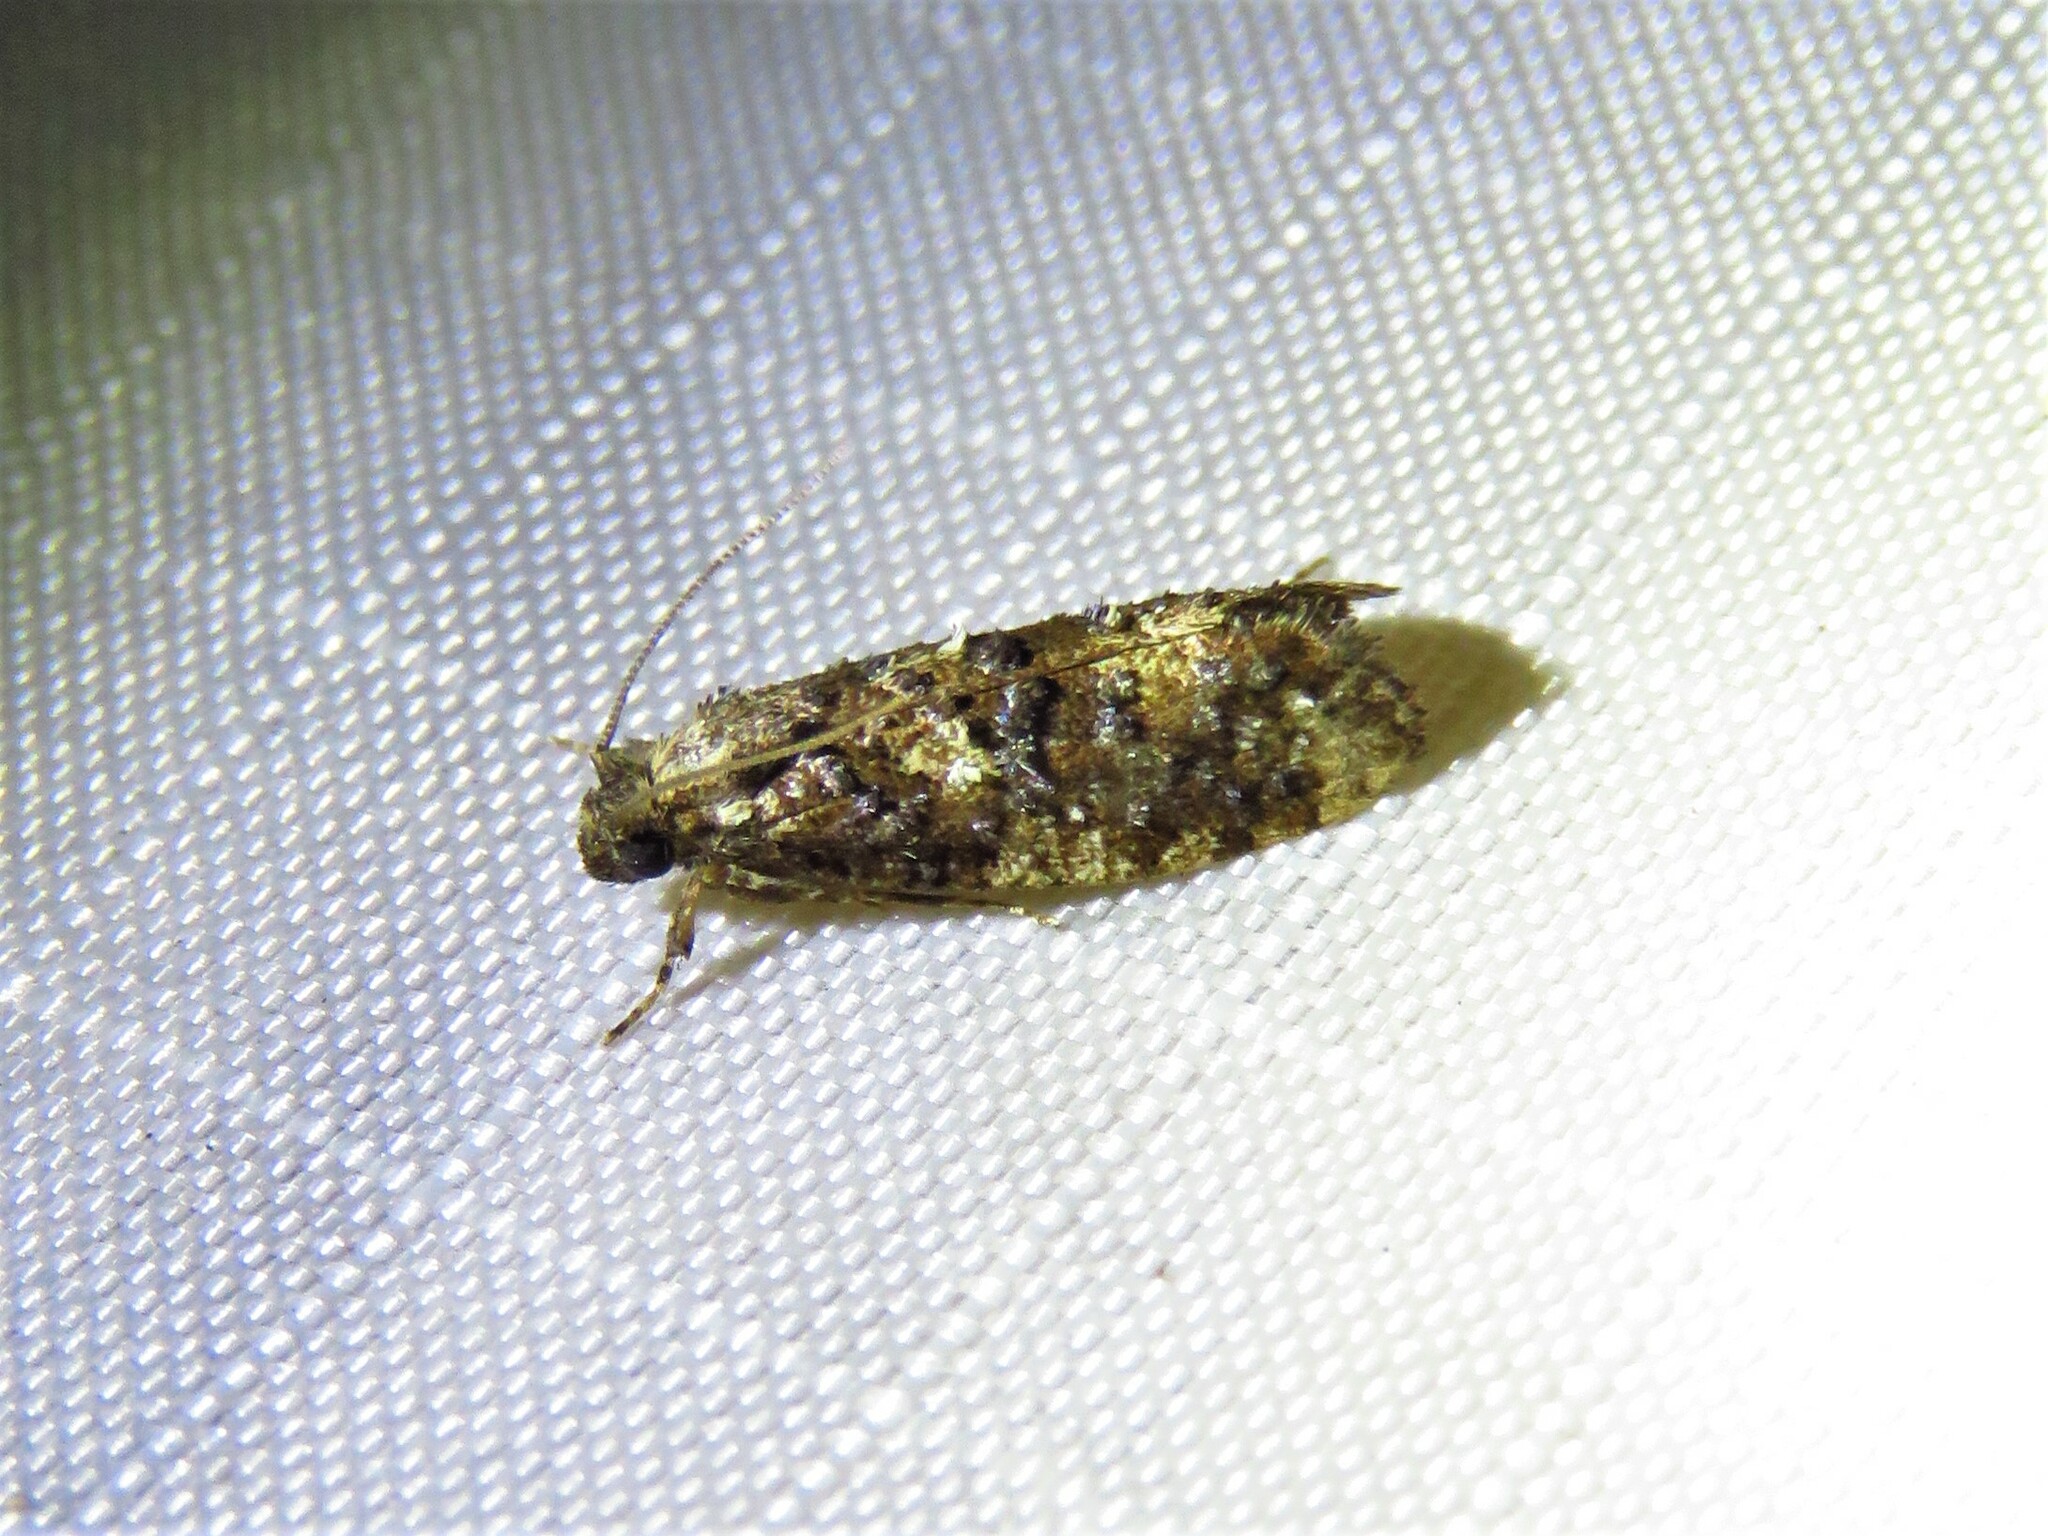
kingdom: Animalia
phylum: Arthropoda
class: Insecta
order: Lepidoptera
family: Tineidae
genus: Acrolophus
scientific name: Acrolophus cressoni
